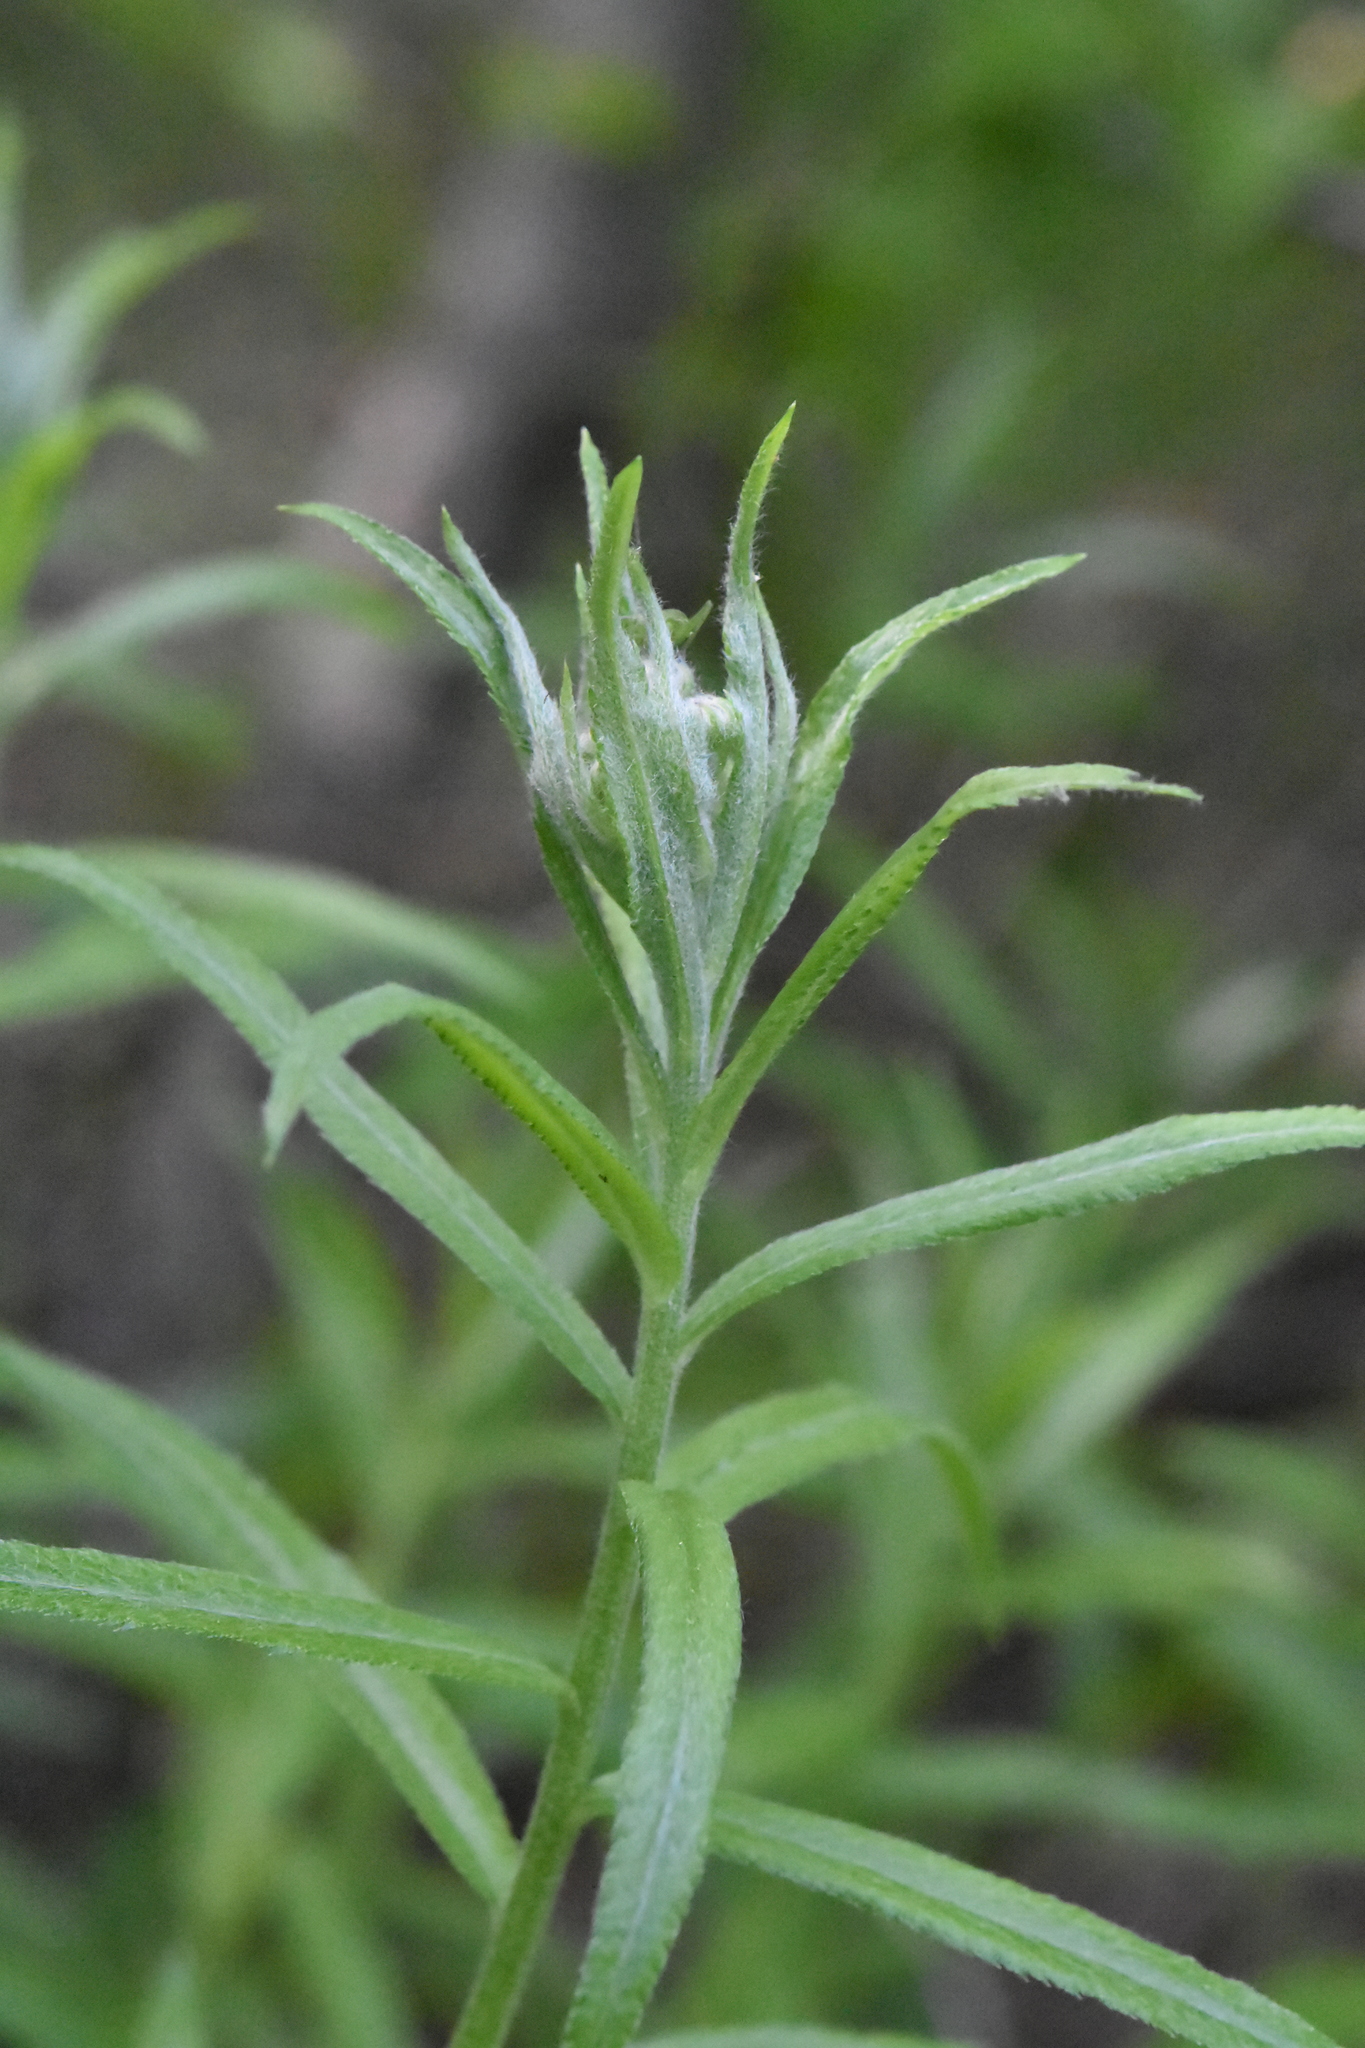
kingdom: Plantae
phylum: Tracheophyta
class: Magnoliopsida
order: Asterales
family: Asteraceae
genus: Achillea
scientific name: Achillea biserrata
